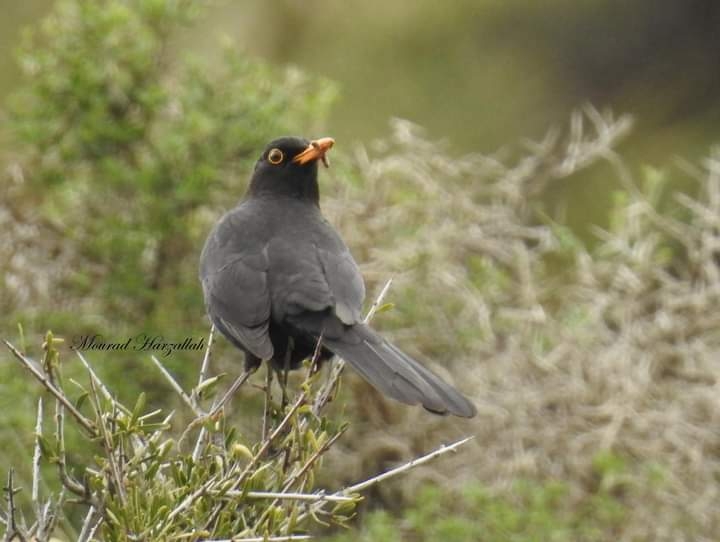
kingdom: Animalia
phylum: Chordata
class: Aves
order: Passeriformes
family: Turdidae
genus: Turdus
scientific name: Turdus merula
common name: Common blackbird
